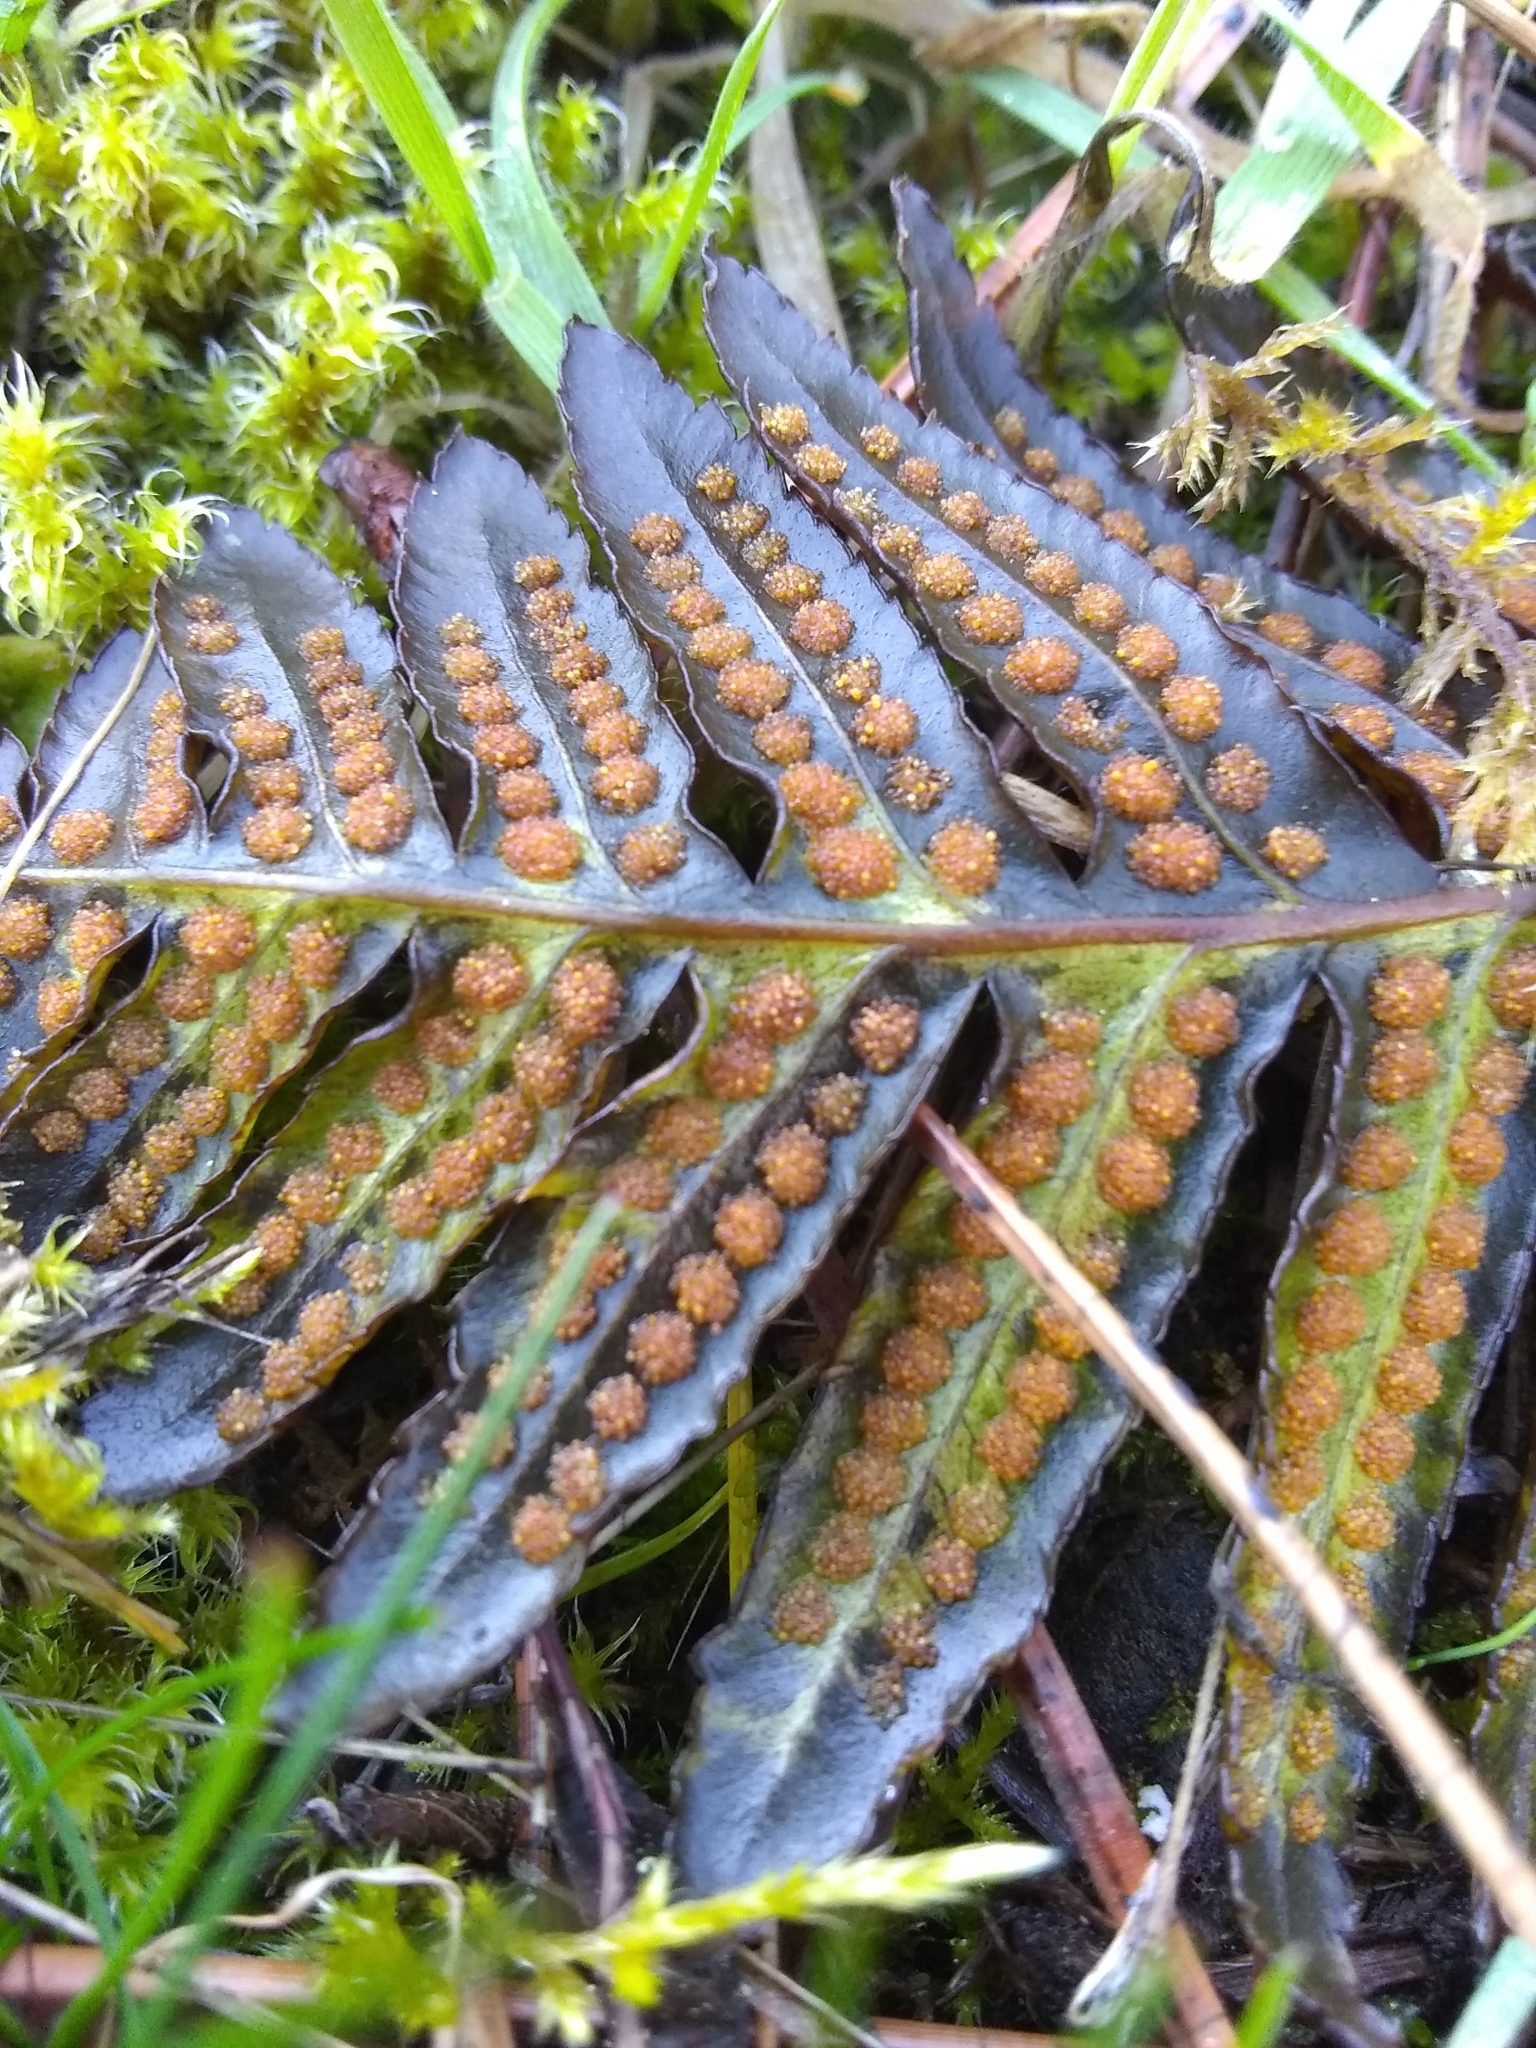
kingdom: Plantae
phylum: Tracheophyta
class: Polypodiopsida
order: Polypodiales
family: Polypodiaceae
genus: Polypodium
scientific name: Polypodium glycyrrhiza
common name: Licorice fern
